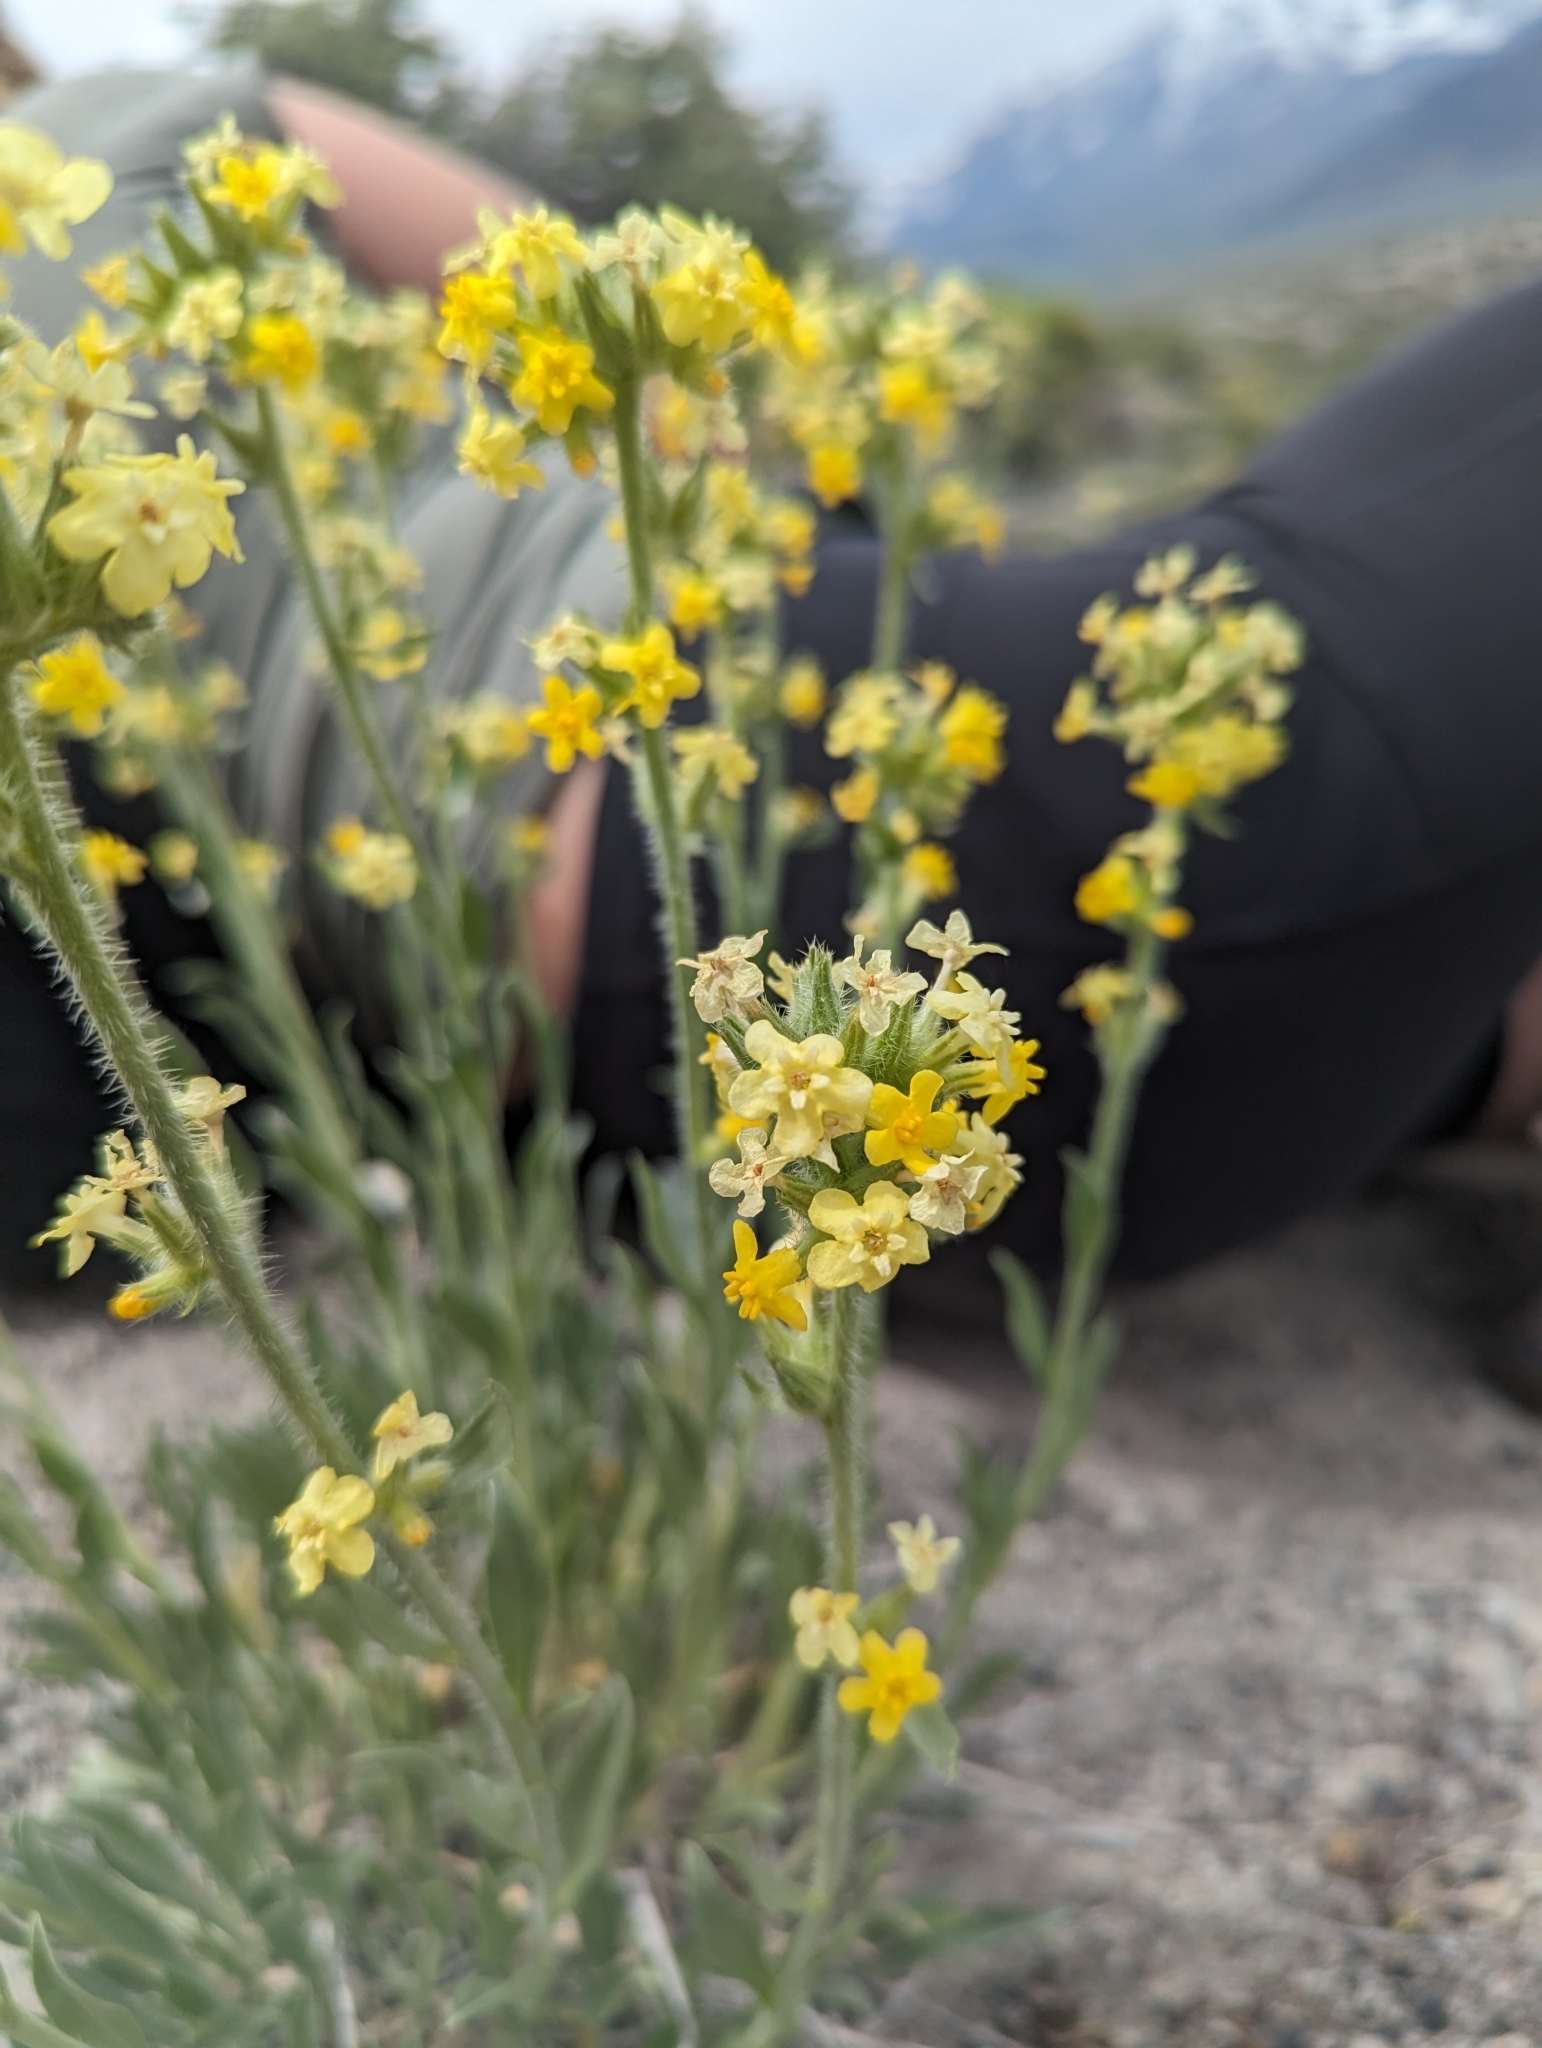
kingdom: Plantae
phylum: Tracheophyta
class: Magnoliopsida
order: Boraginales
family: Boraginaceae
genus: Oreocarya
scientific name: Oreocarya confertiflora
